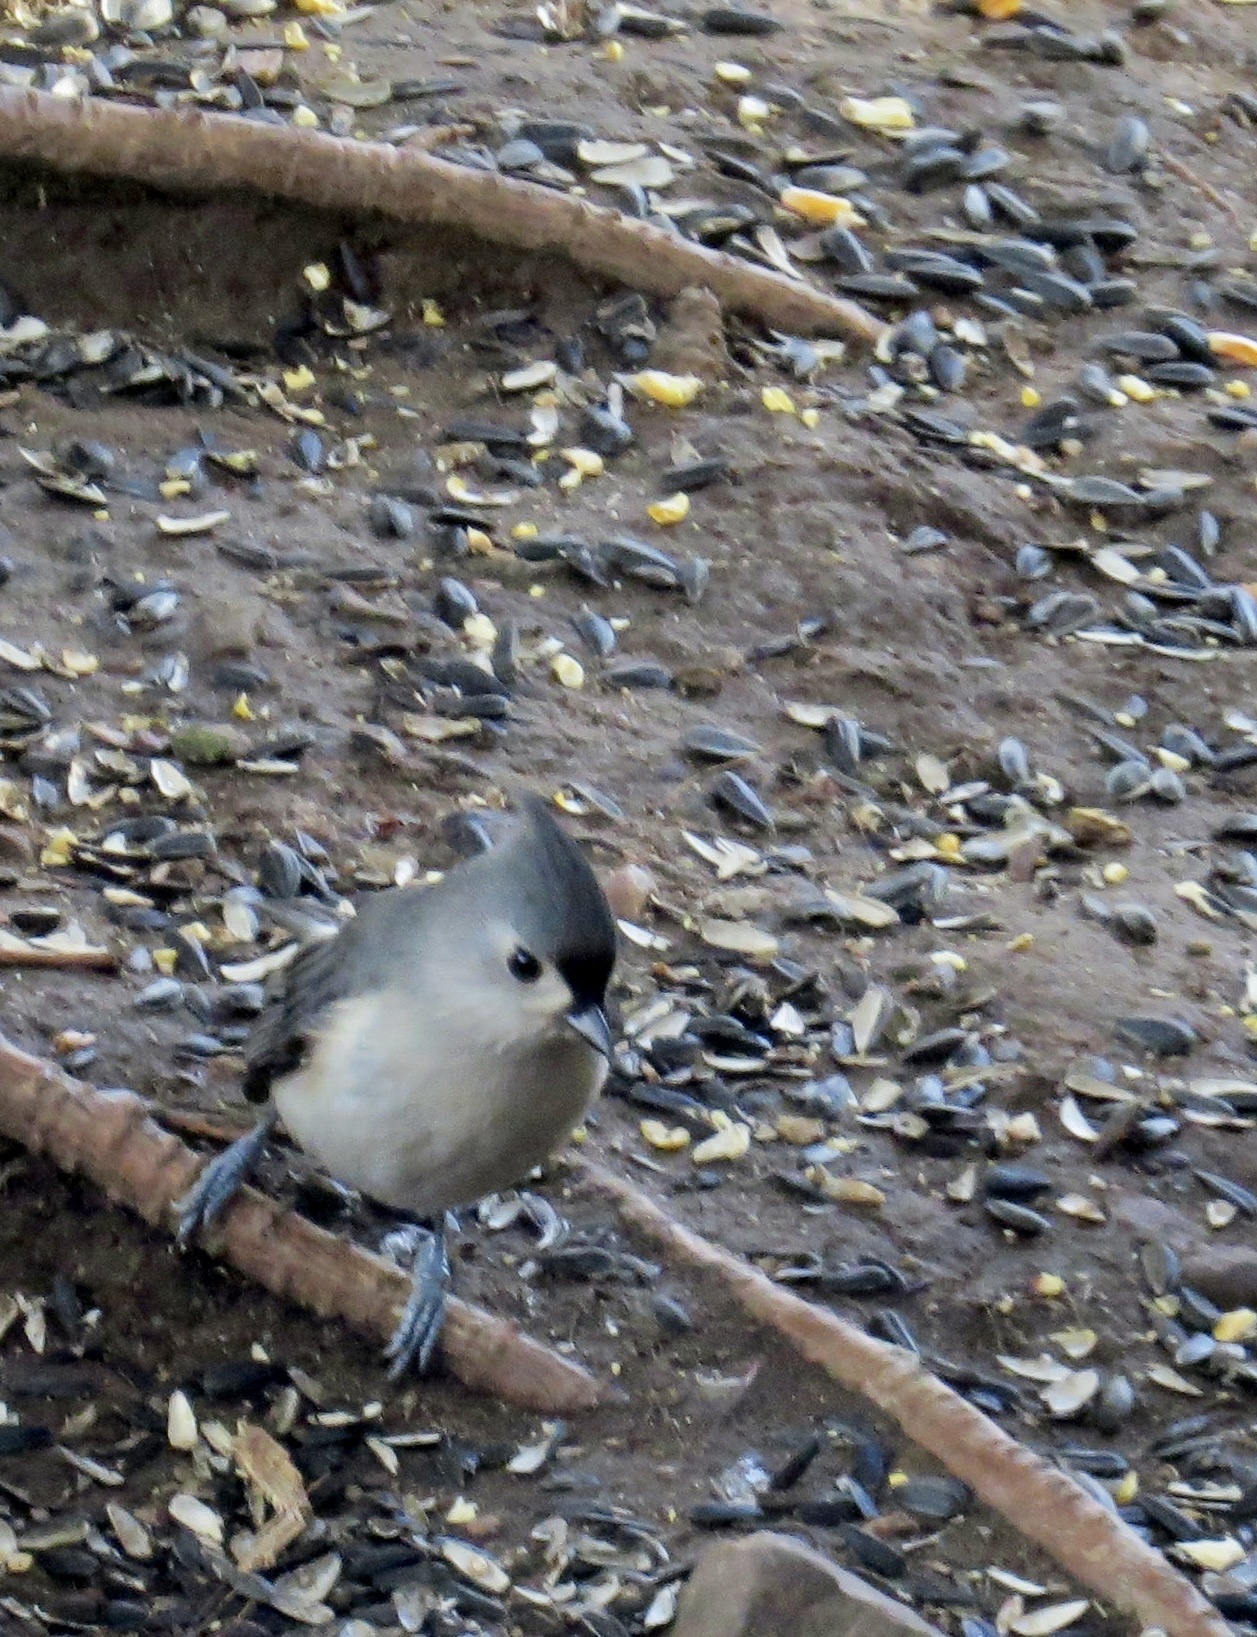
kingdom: Animalia
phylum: Chordata
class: Aves
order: Passeriformes
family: Paridae
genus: Baeolophus
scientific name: Baeolophus bicolor
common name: Tufted titmouse
